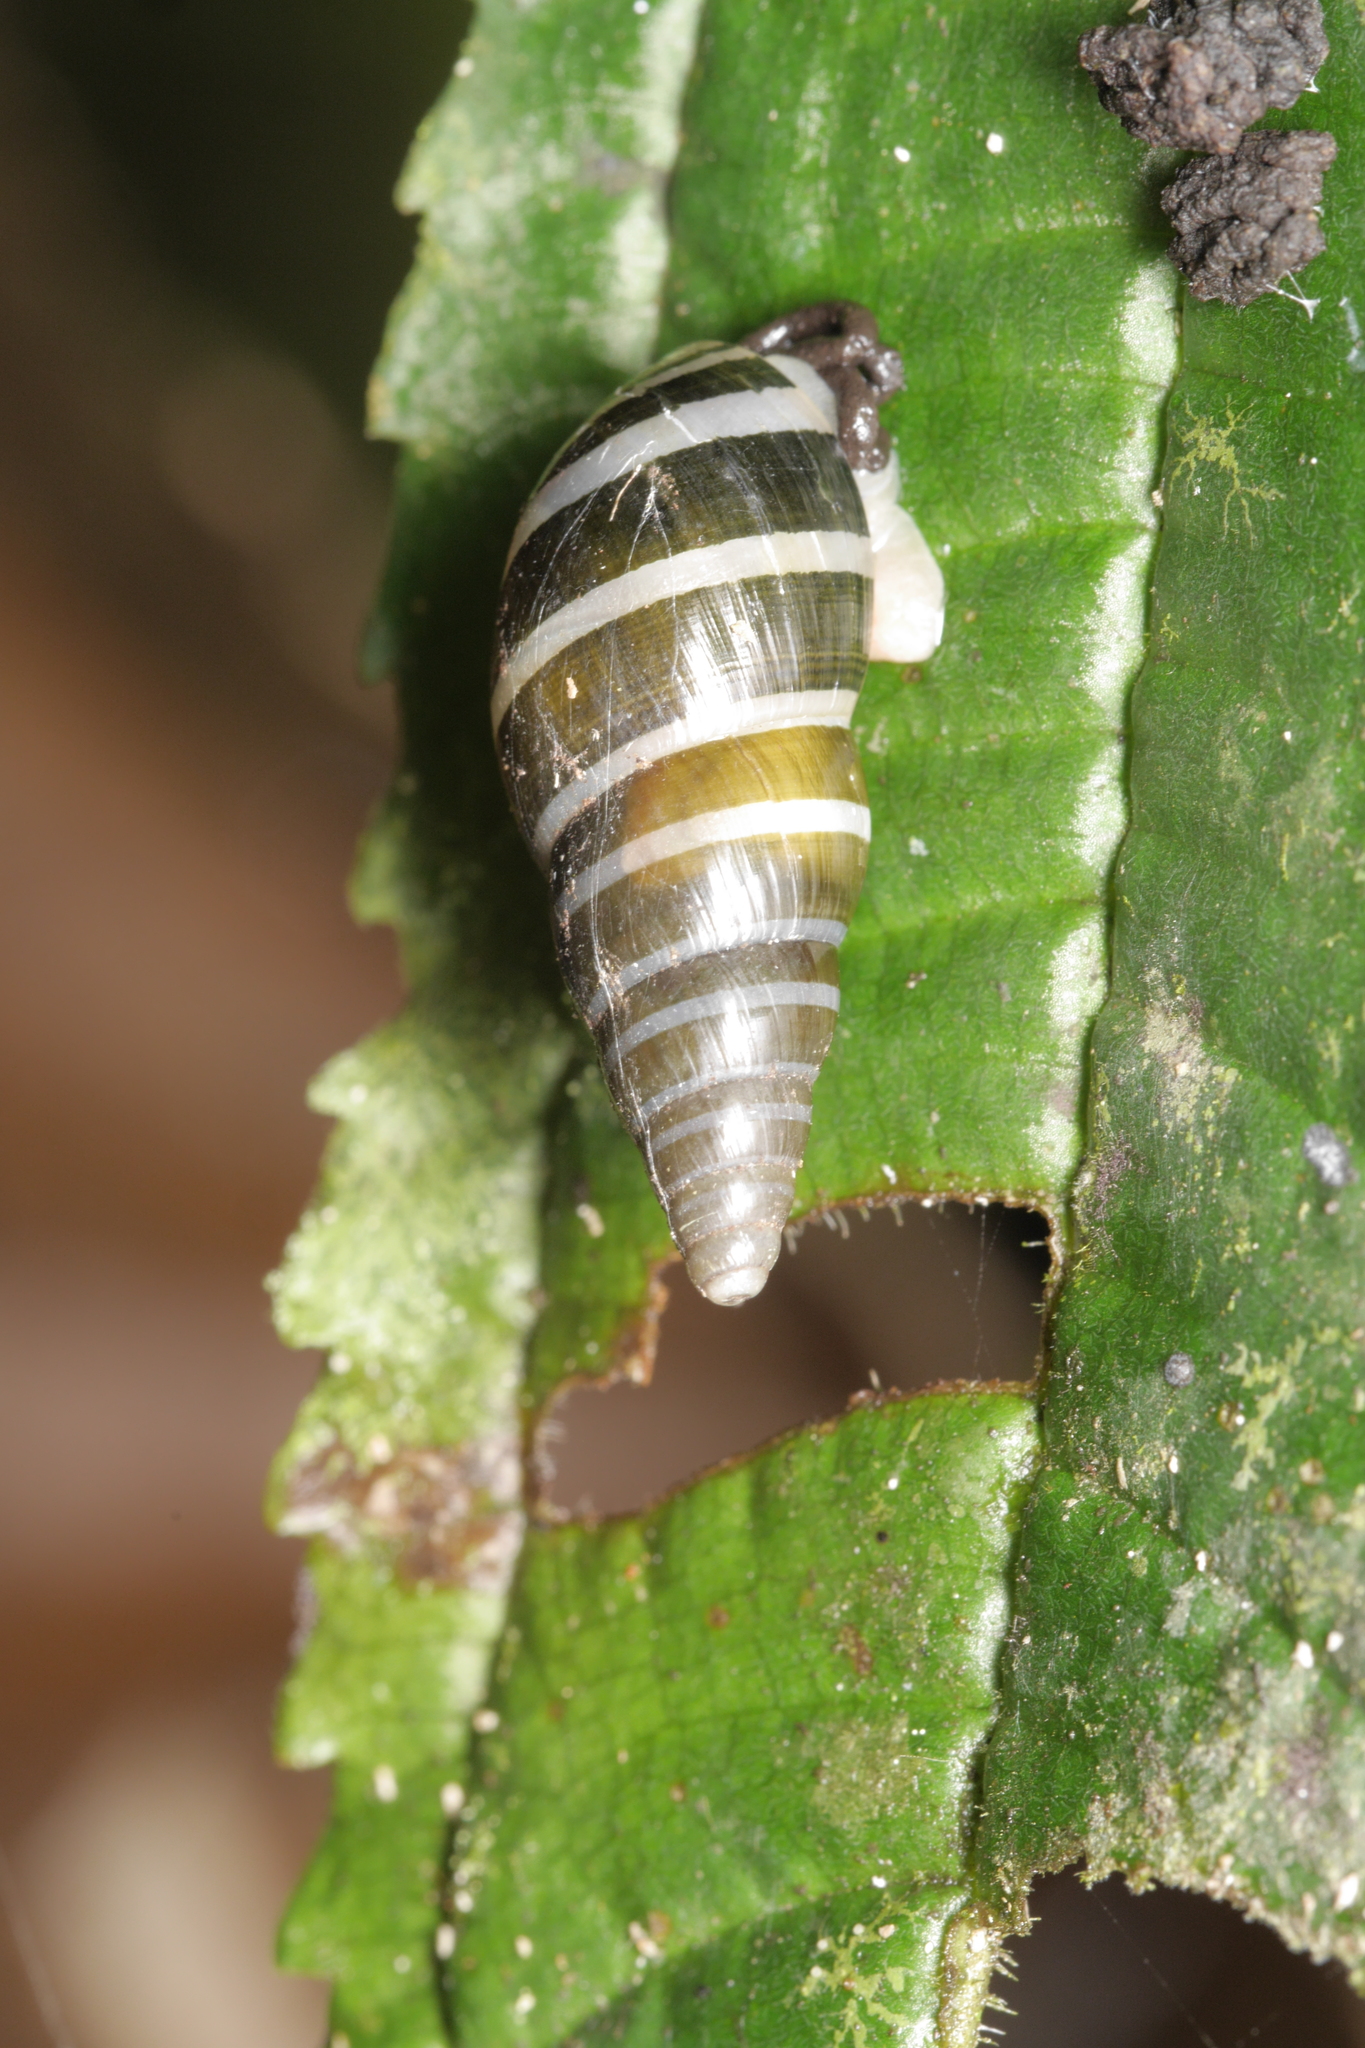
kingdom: Animalia
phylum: Mollusca
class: Gastropoda
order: Stylommatophora
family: Achatinidae
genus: Zoniferella
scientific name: Zoniferella albobalteata
